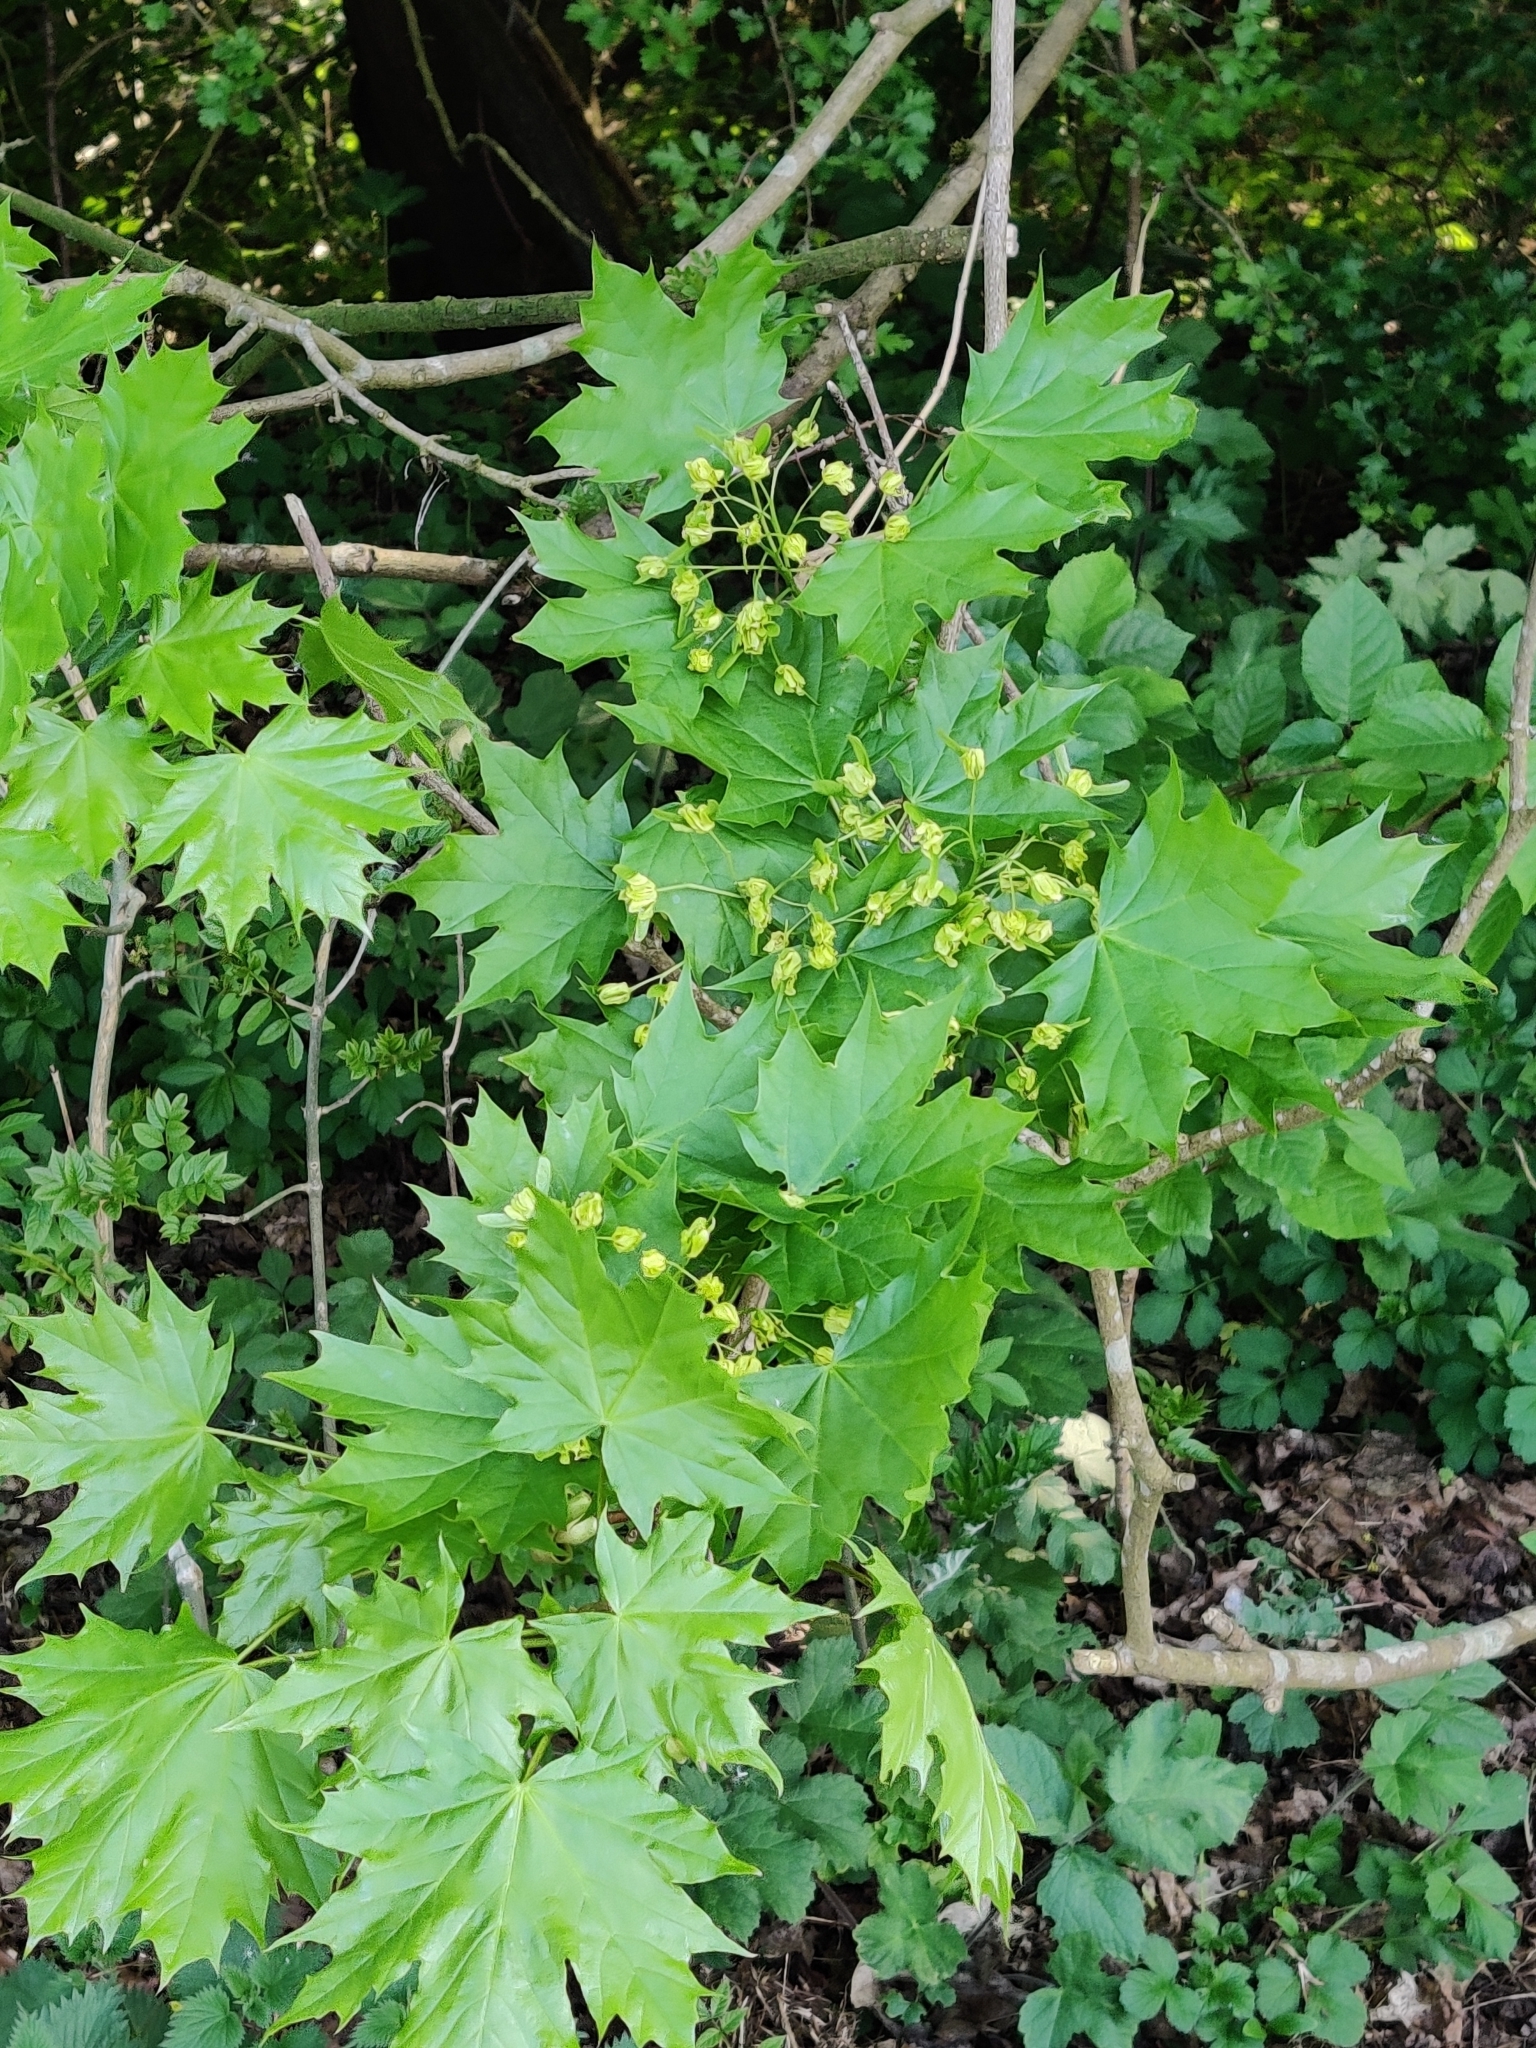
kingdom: Plantae
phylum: Tracheophyta
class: Magnoliopsida
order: Sapindales
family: Sapindaceae
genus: Acer
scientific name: Acer platanoides
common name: Norway maple
